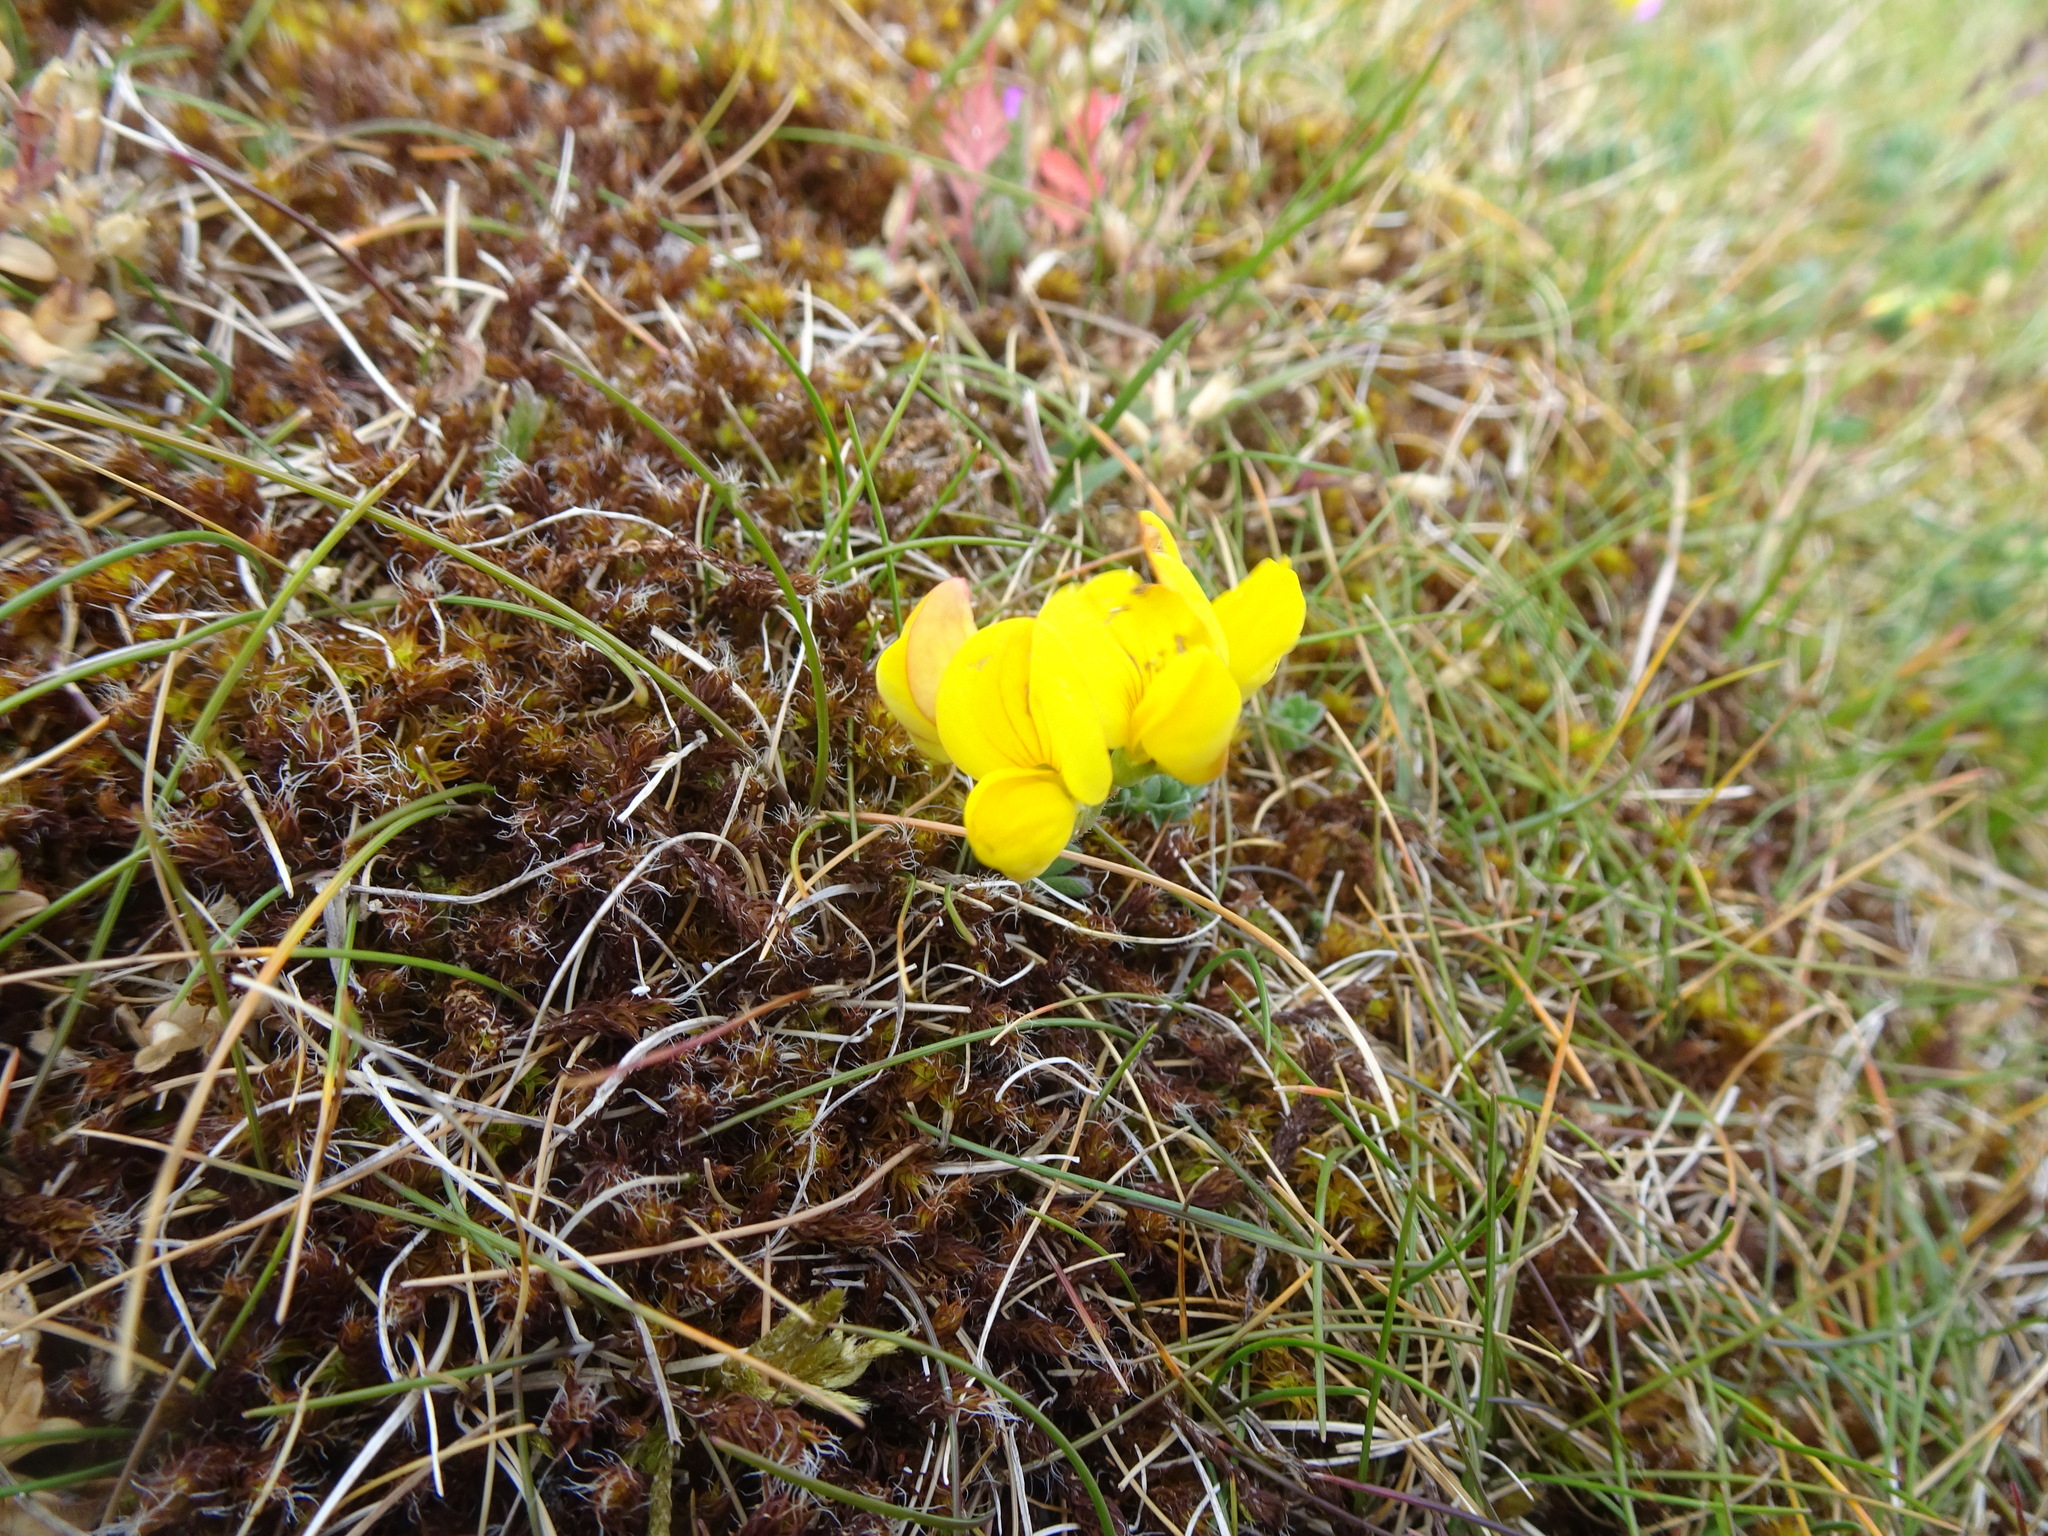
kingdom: Plantae
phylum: Tracheophyta
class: Magnoliopsida
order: Fabales
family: Fabaceae
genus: Lotus
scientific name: Lotus corniculatus
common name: Common bird's-foot-trefoil
